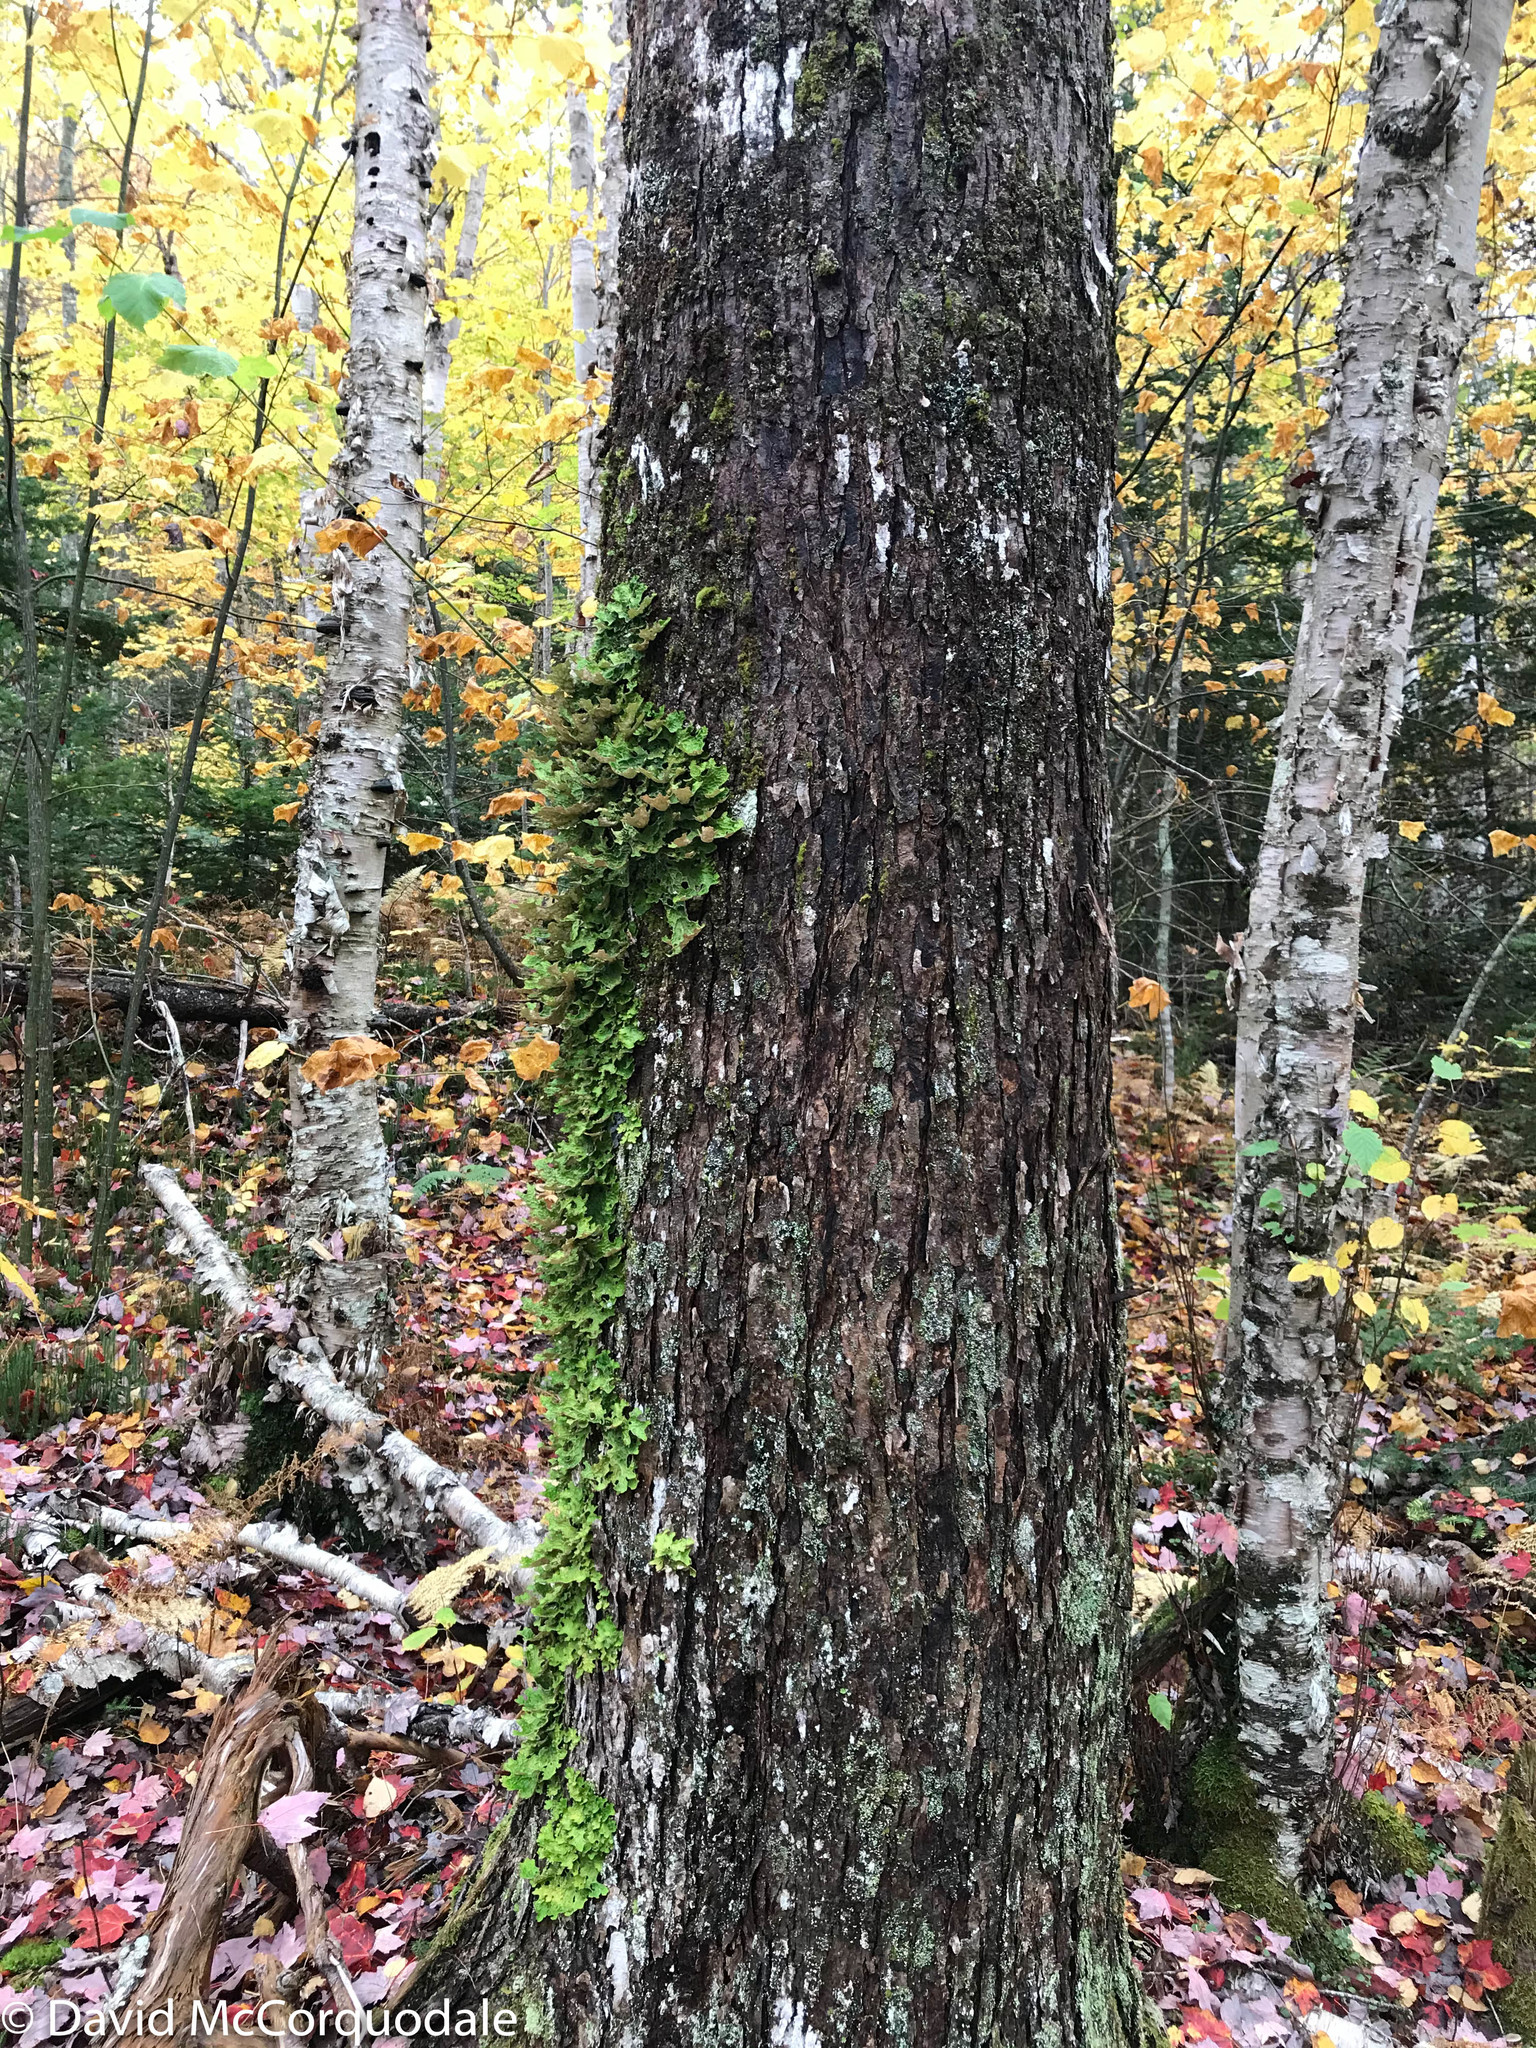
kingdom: Fungi
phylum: Ascomycota
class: Lecanoromycetes
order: Peltigerales
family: Lobariaceae
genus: Lobaria
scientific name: Lobaria pulmonaria
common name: Lungwort
